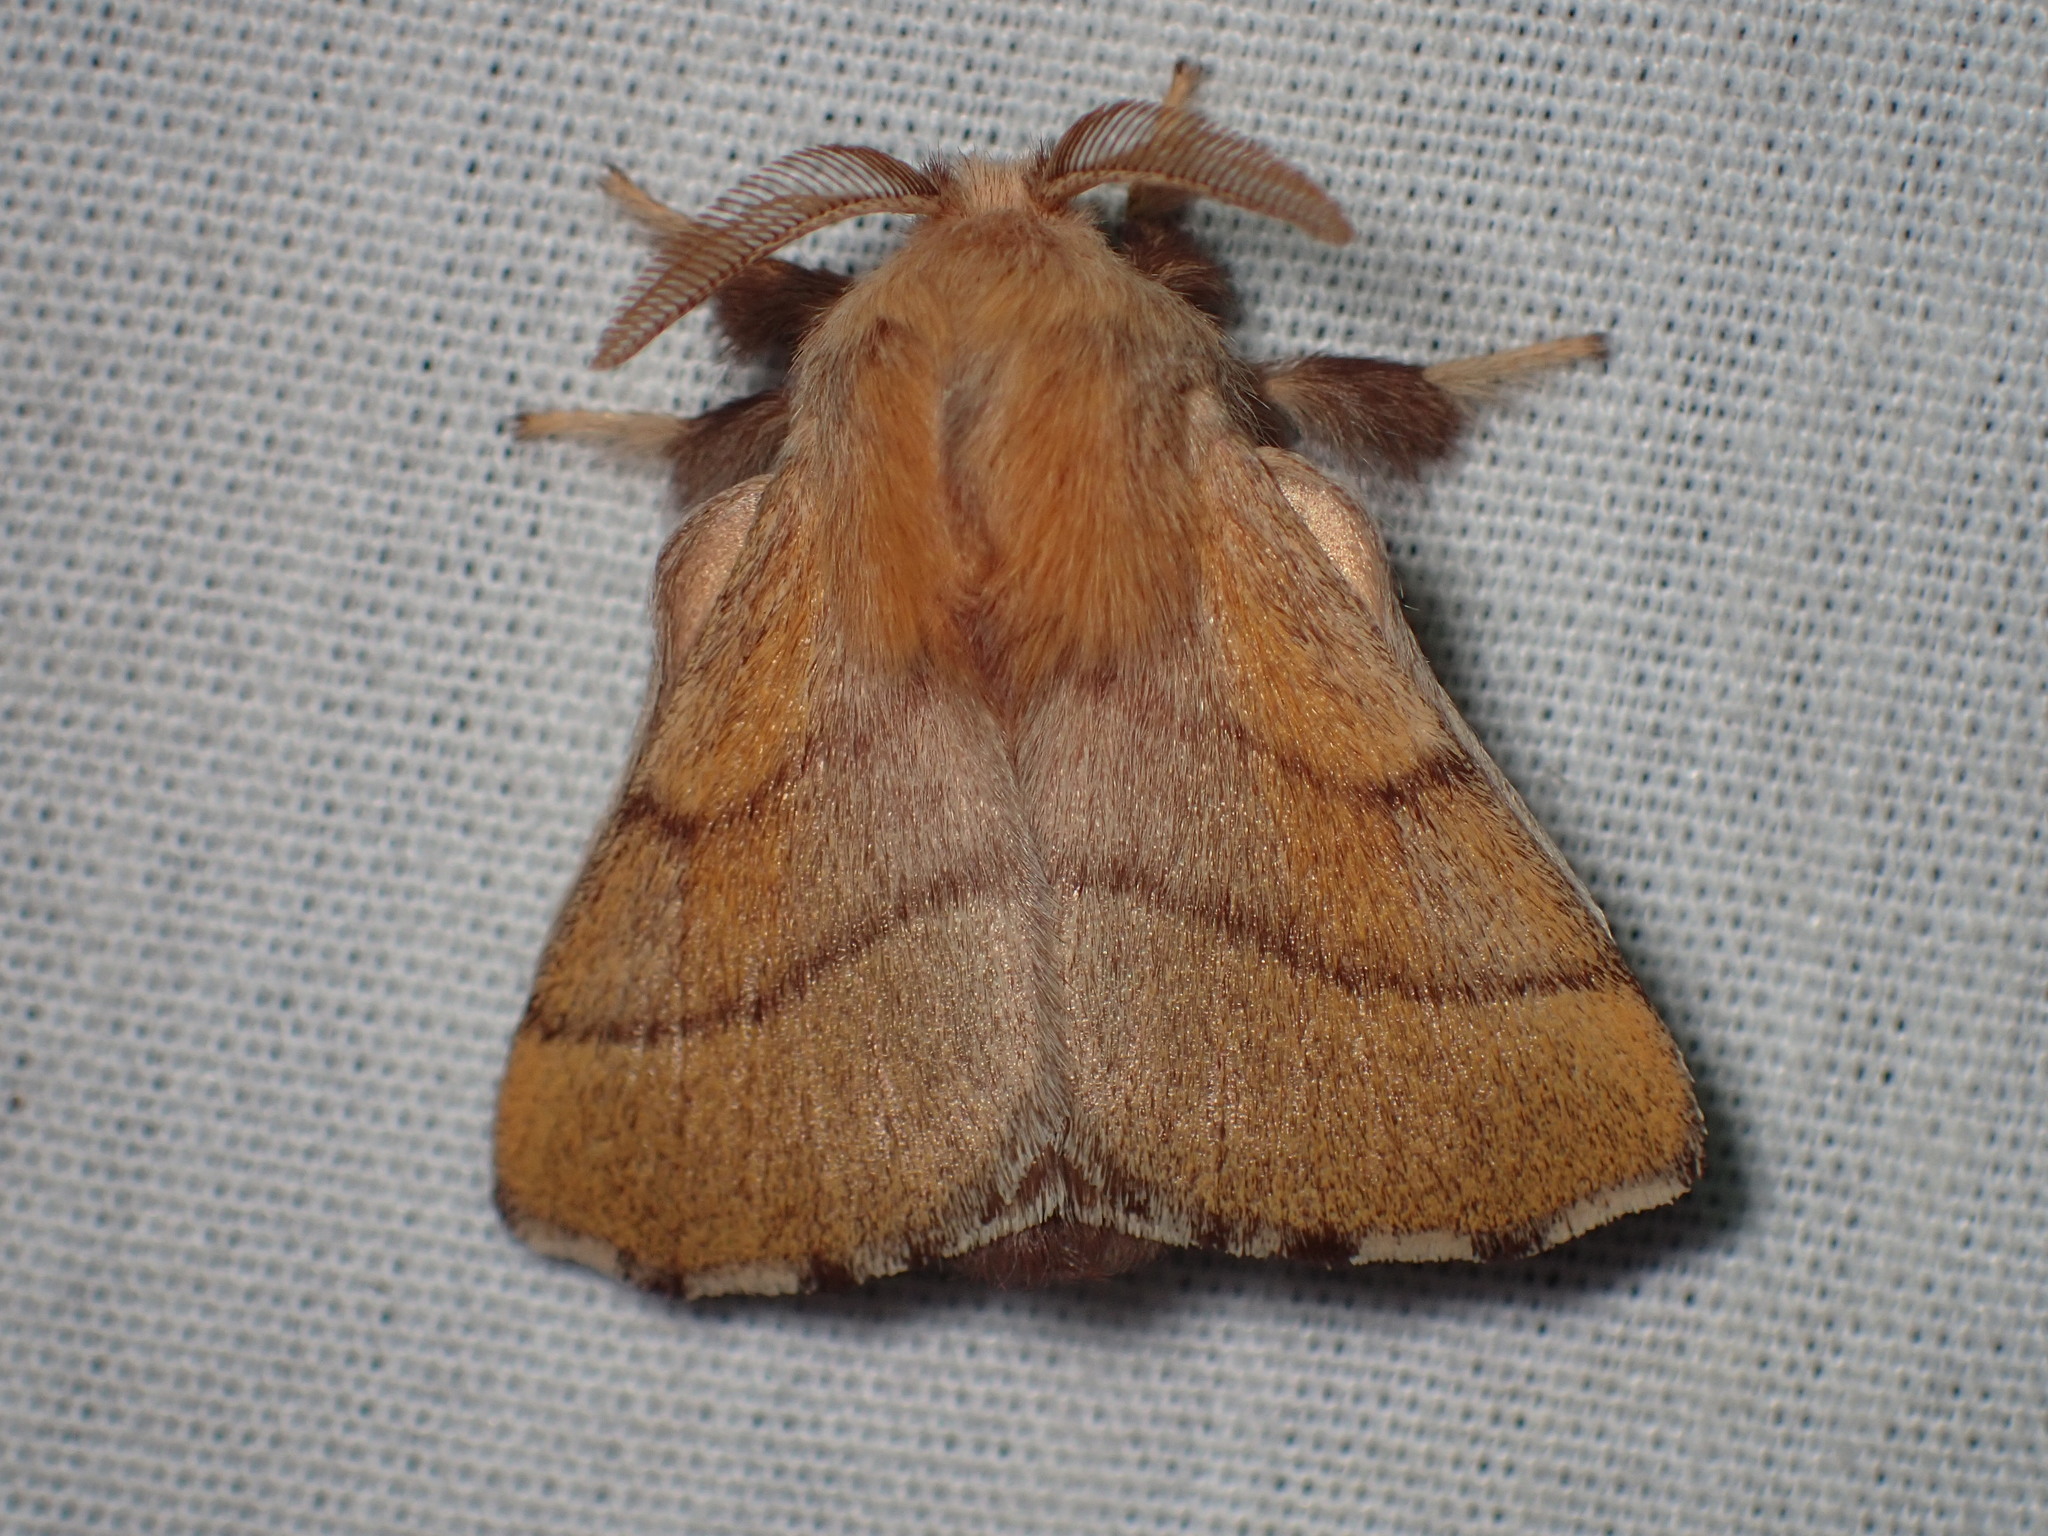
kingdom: Animalia
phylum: Arthropoda
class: Insecta
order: Lepidoptera
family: Lasiocampidae
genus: Malacosoma
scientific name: Malacosoma disstria
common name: Forest tent caterpillar
